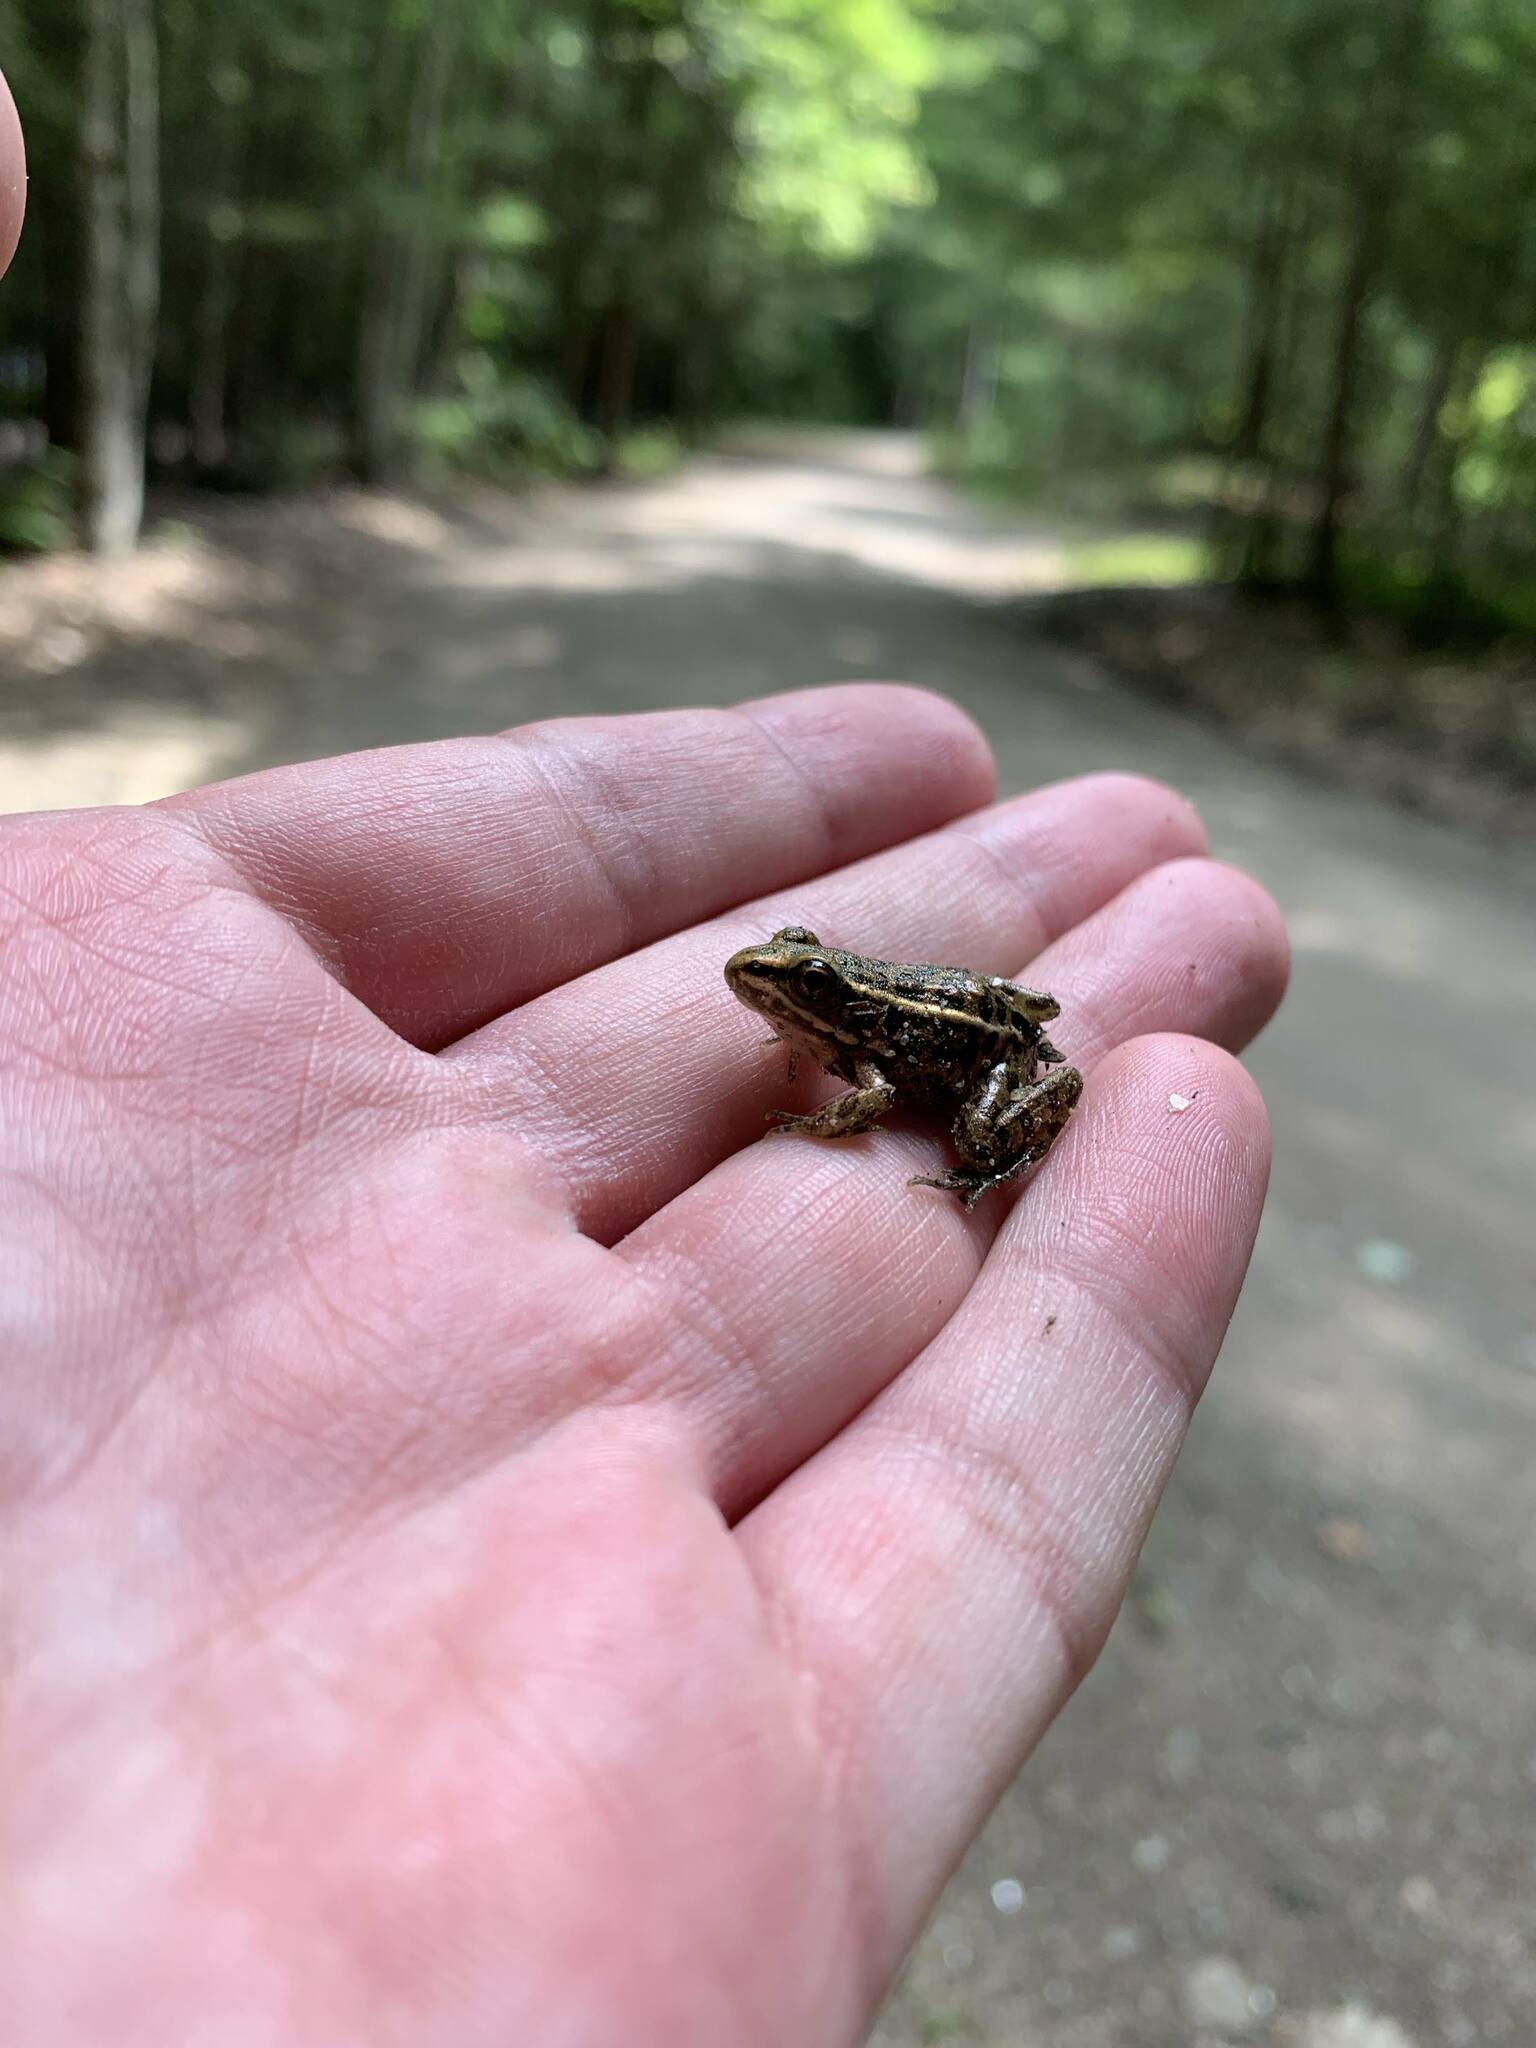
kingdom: Animalia
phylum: Chordata
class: Amphibia
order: Anura
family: Ranidae
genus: Lithobates
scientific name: Lithobates palustris
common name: Pickerel frog
